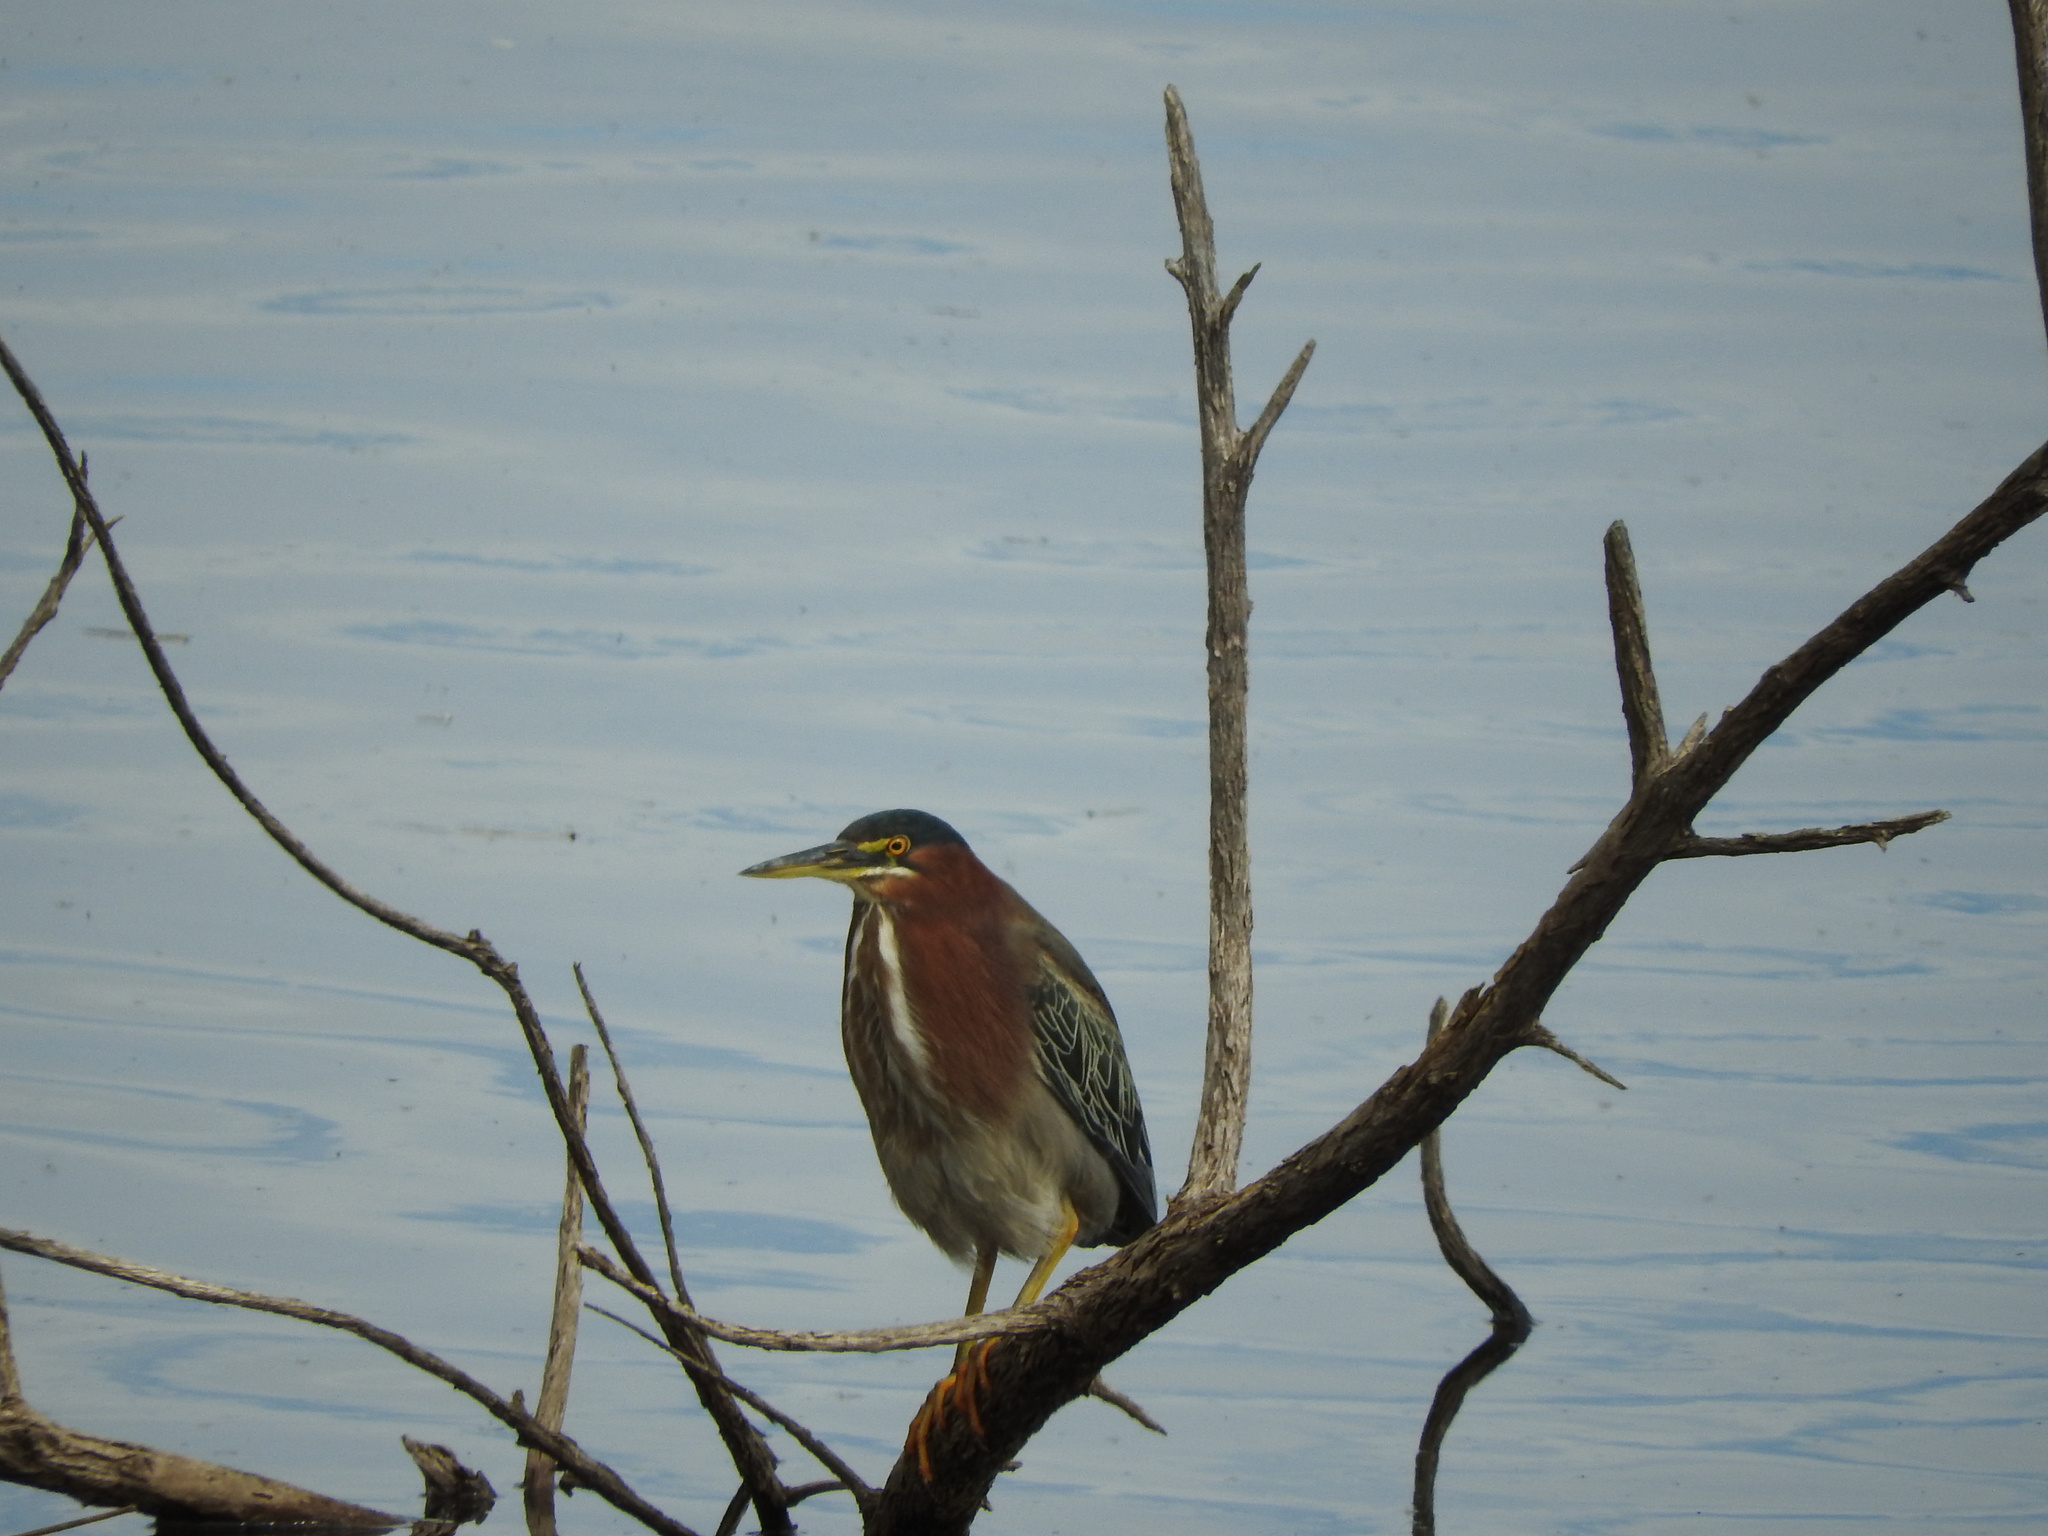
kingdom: Animalia
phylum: Chordata
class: Aves
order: Pelecaniformes
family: Ardeidae
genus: Butorides
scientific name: Butorides virescens
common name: Green heron
